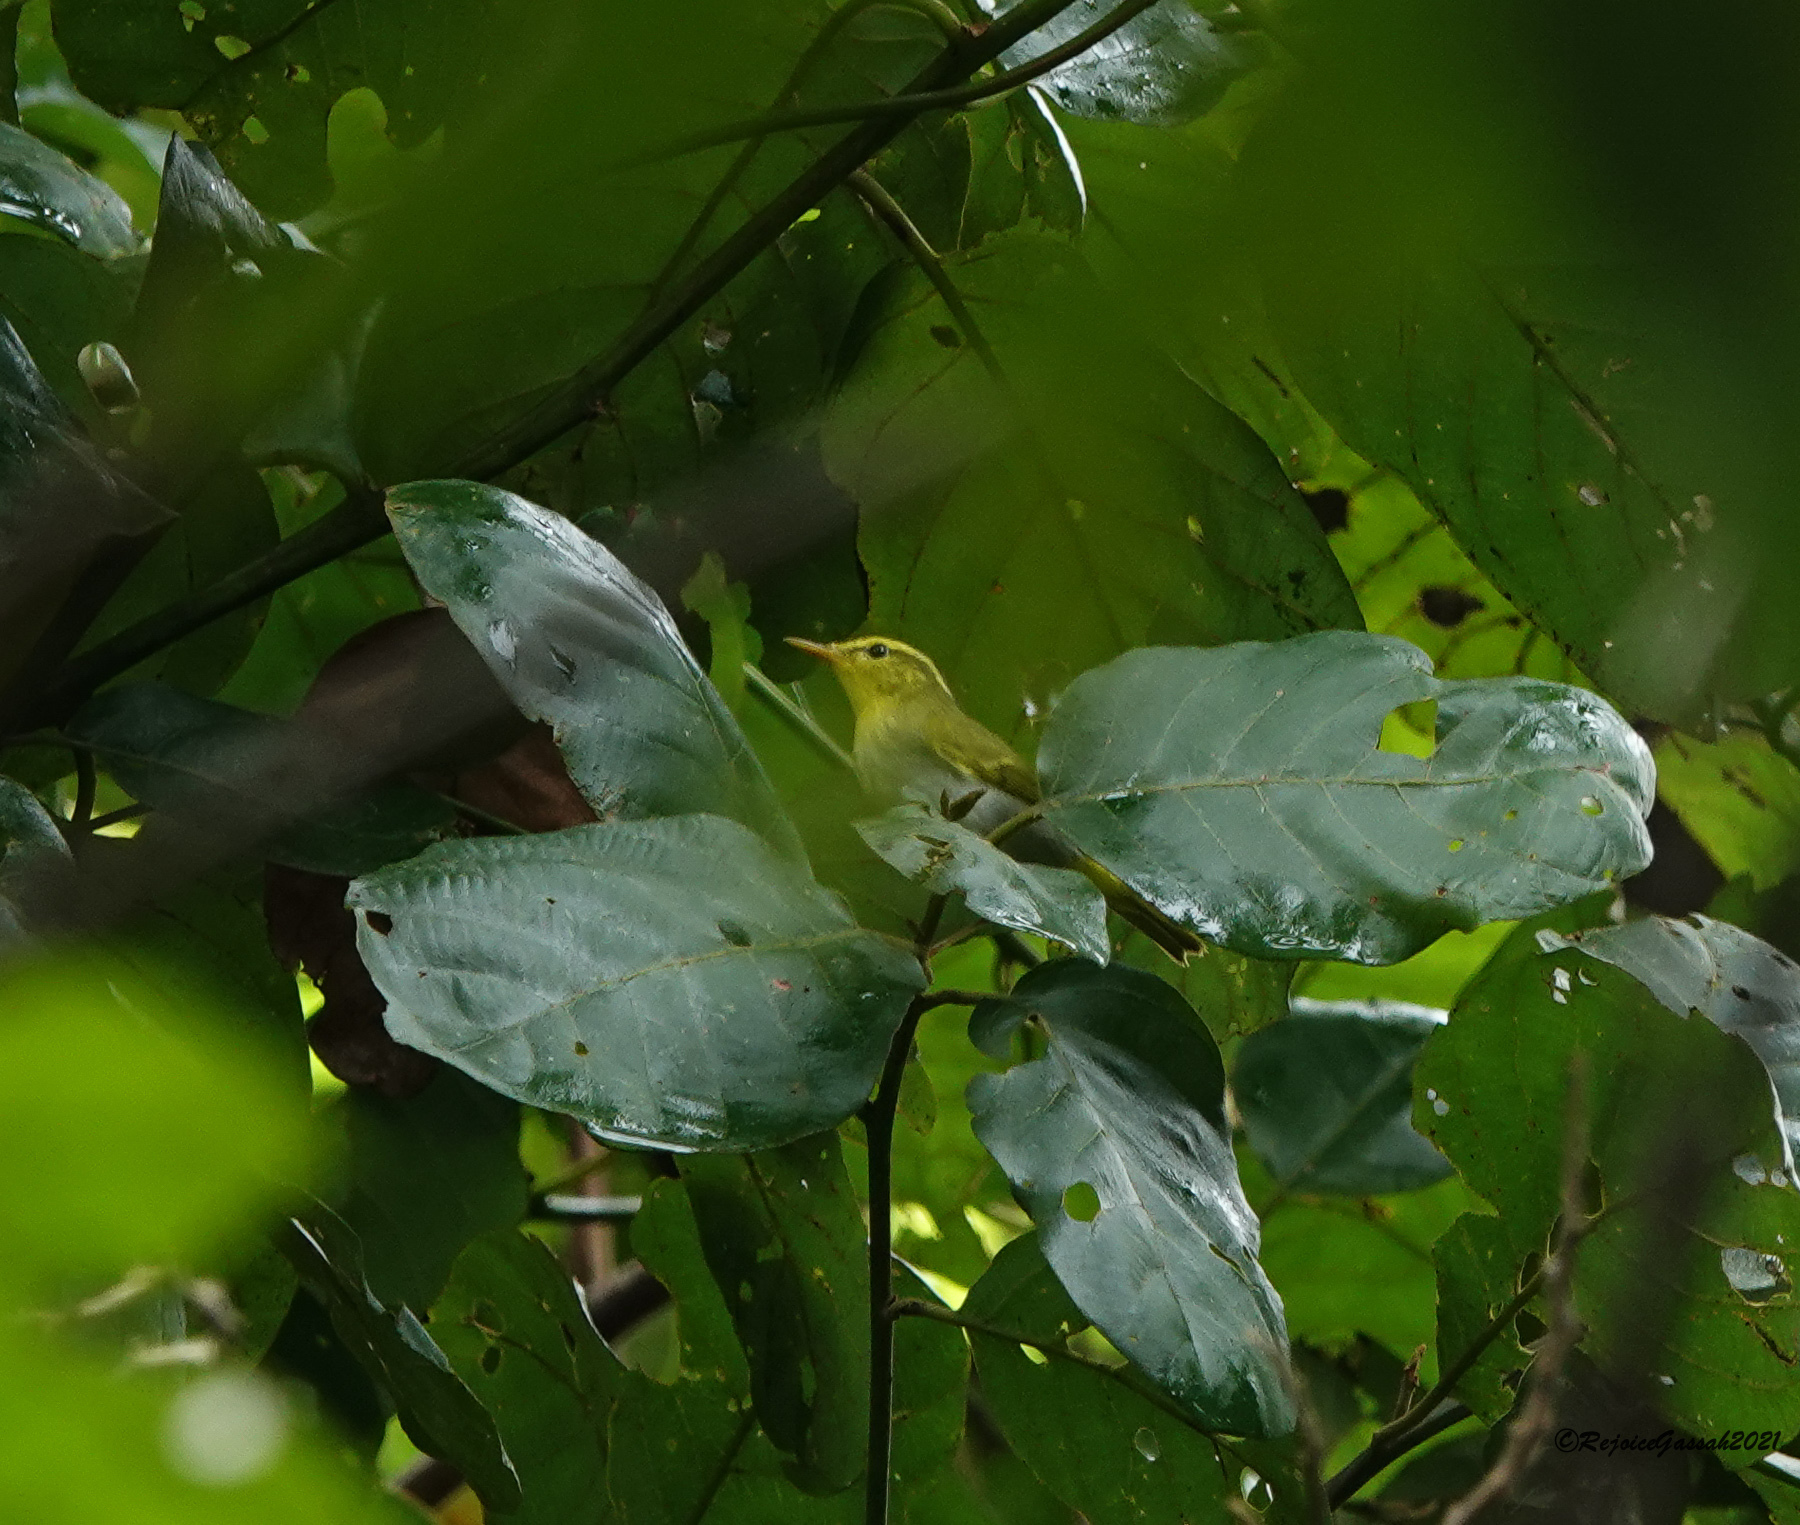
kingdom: Animalia
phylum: Chordata
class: Aves
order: Passeriformes
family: Phylloscopidae
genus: Phylloscopus
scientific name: Phylloscopus cantator
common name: Yellow-vented warbler
